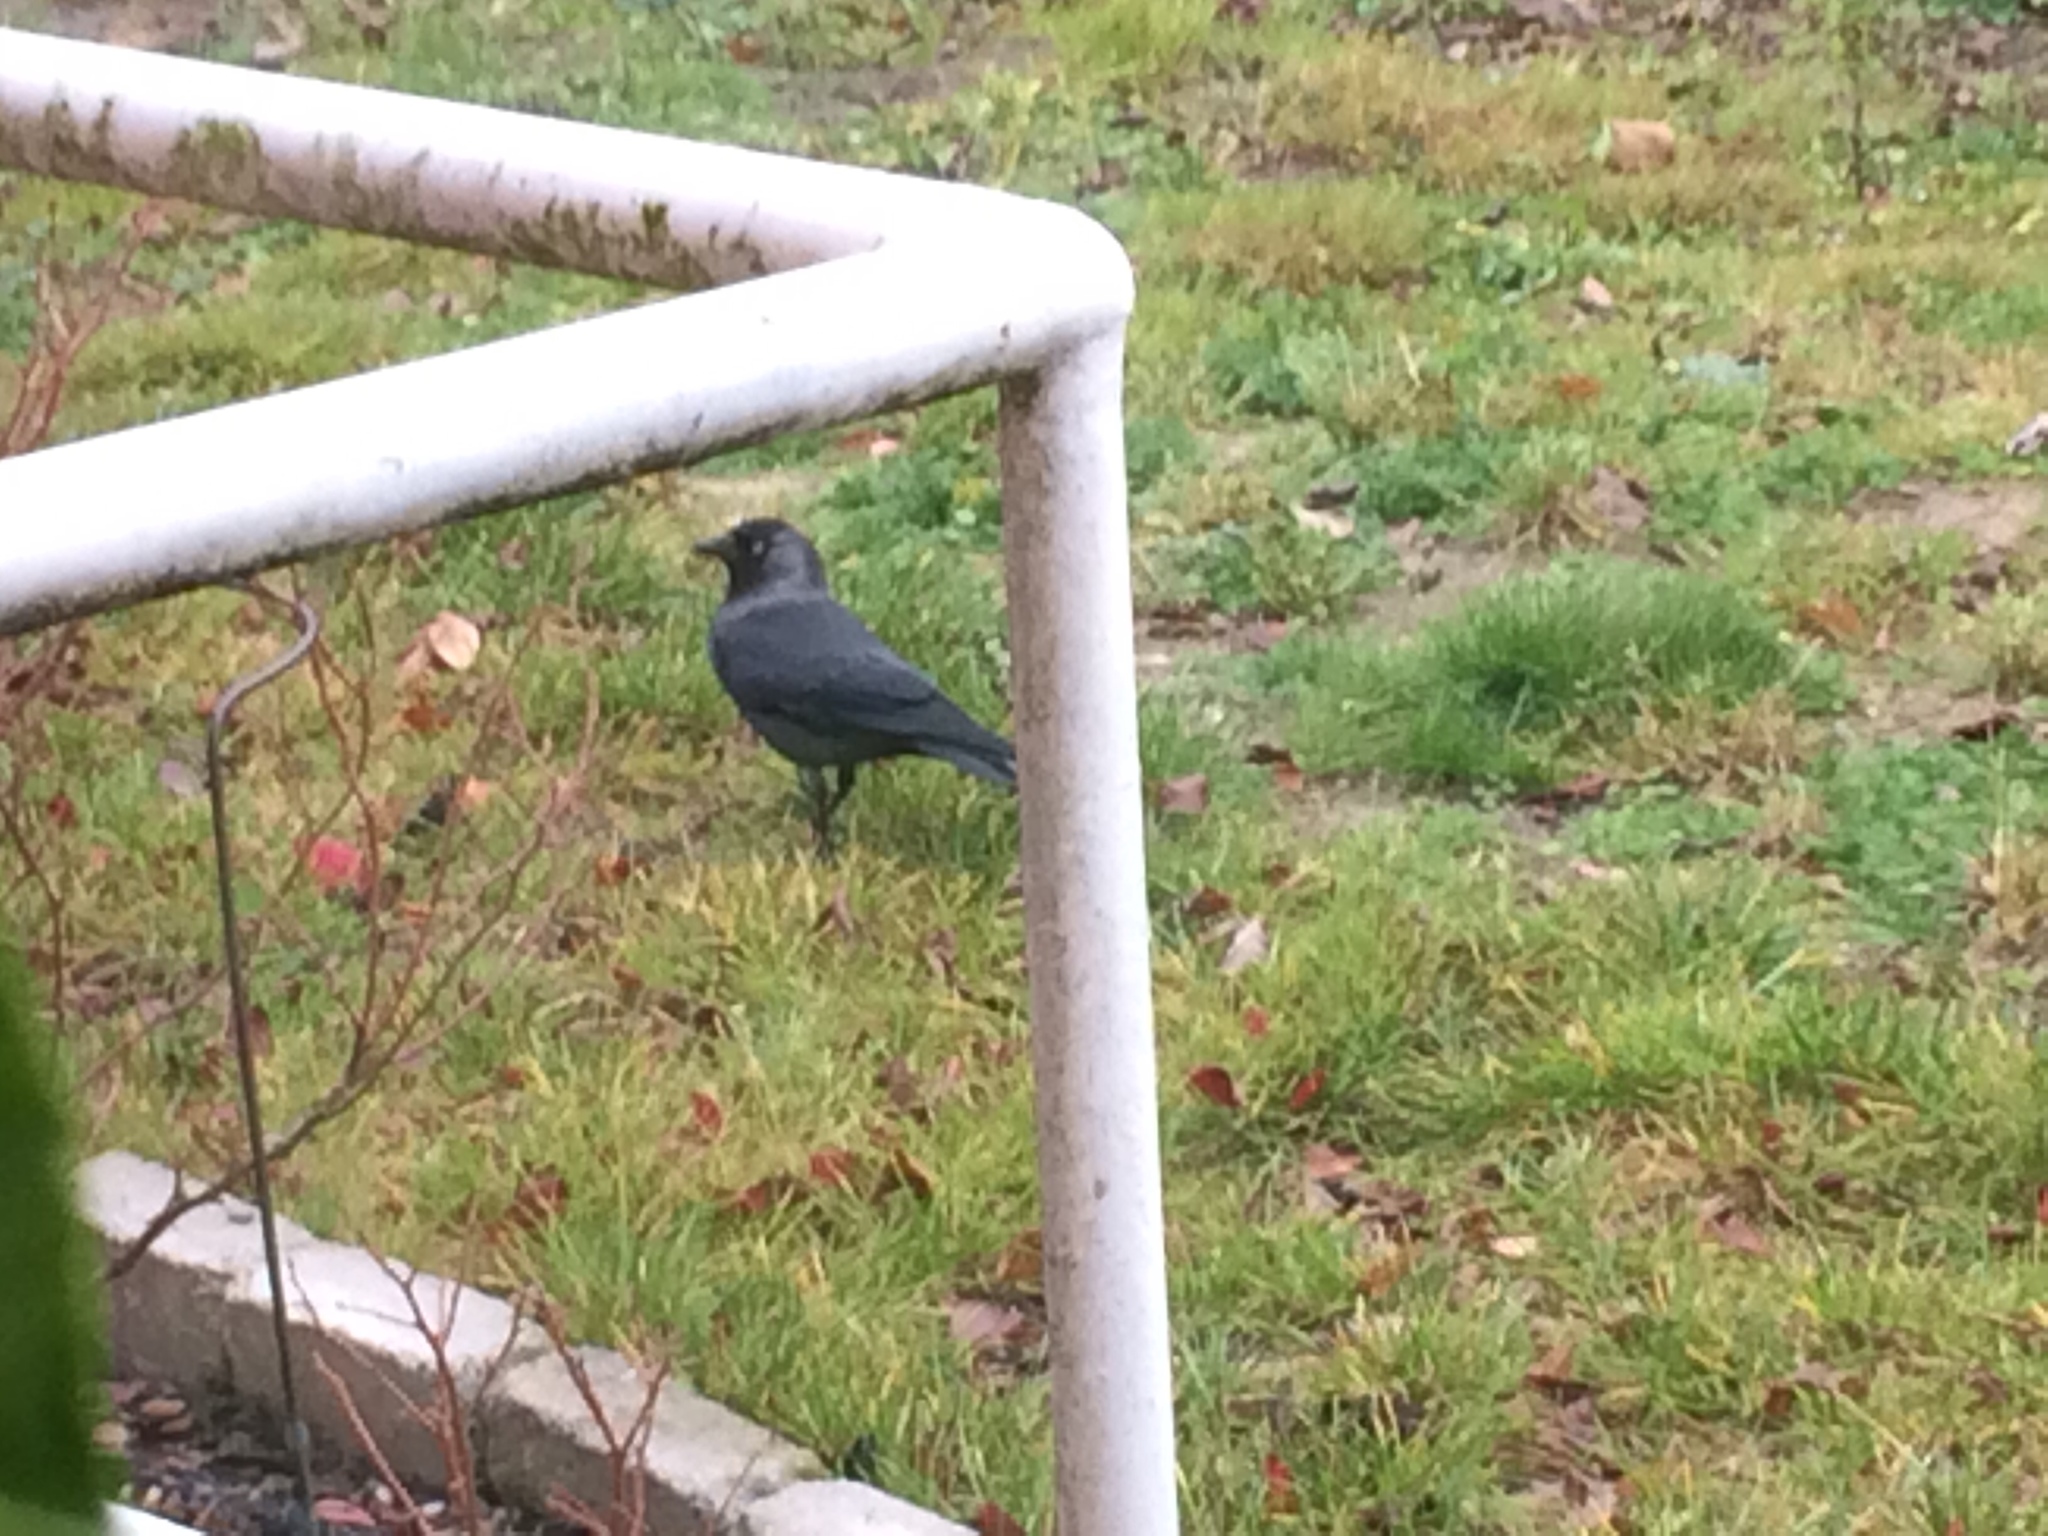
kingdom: Animalia
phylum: Chordata
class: Aves
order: Passeriformes
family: Corvidae
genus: Coloeus
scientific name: Coloeus monedula
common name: Western jackdaw
